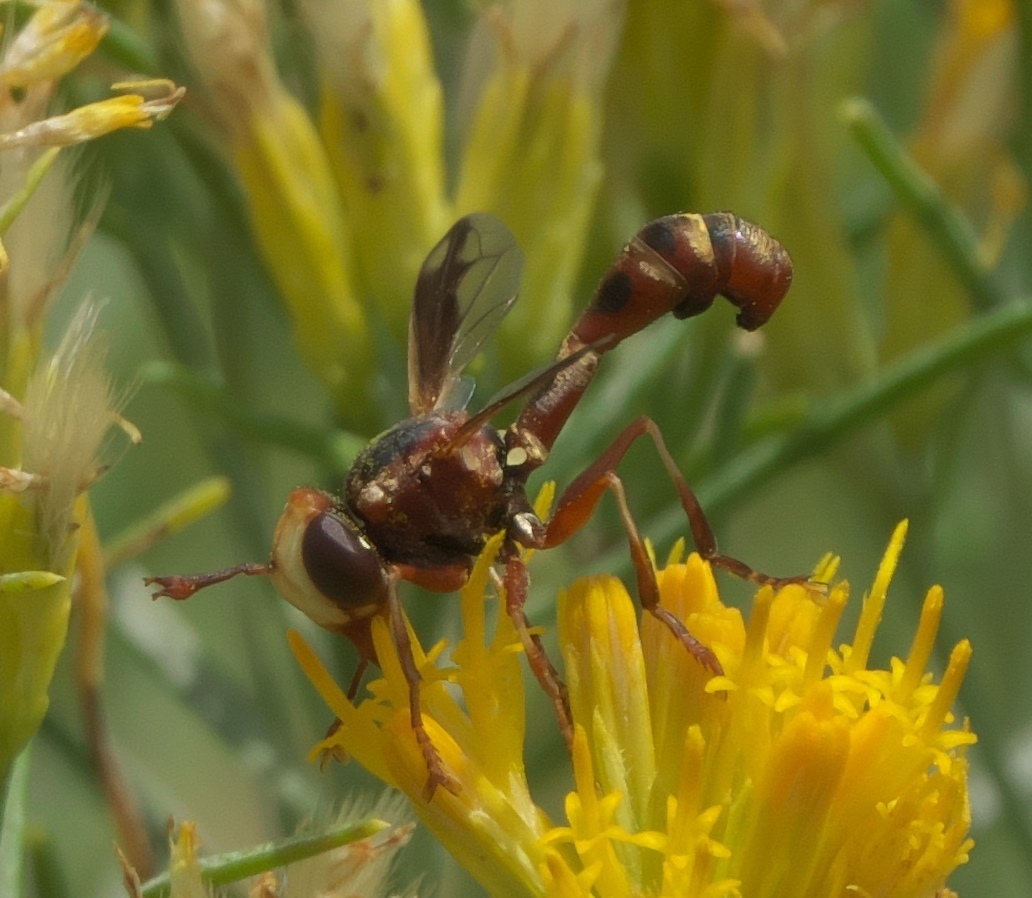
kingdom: Animalia
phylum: Arthropoda
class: Insecta
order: Diptera
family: Conopidae
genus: Physocephala
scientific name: Physocephala texana
